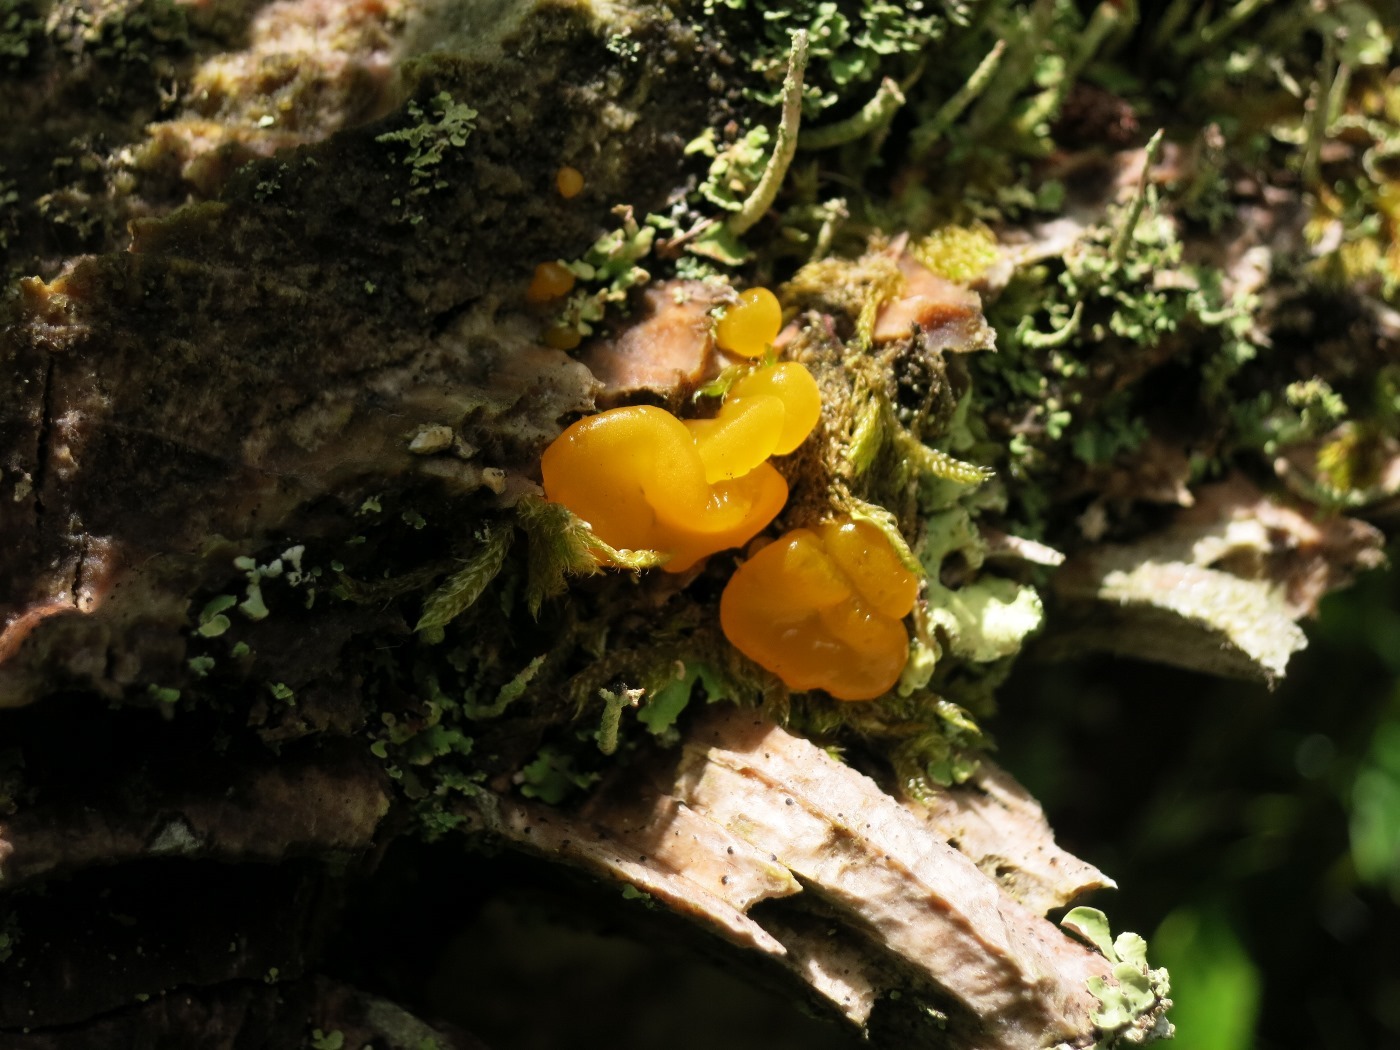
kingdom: Fungi
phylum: Basidiomycota
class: Tremellomycetes
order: Tremellales
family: Tremellaceae
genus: Tremella
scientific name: Tremella mesenterica
